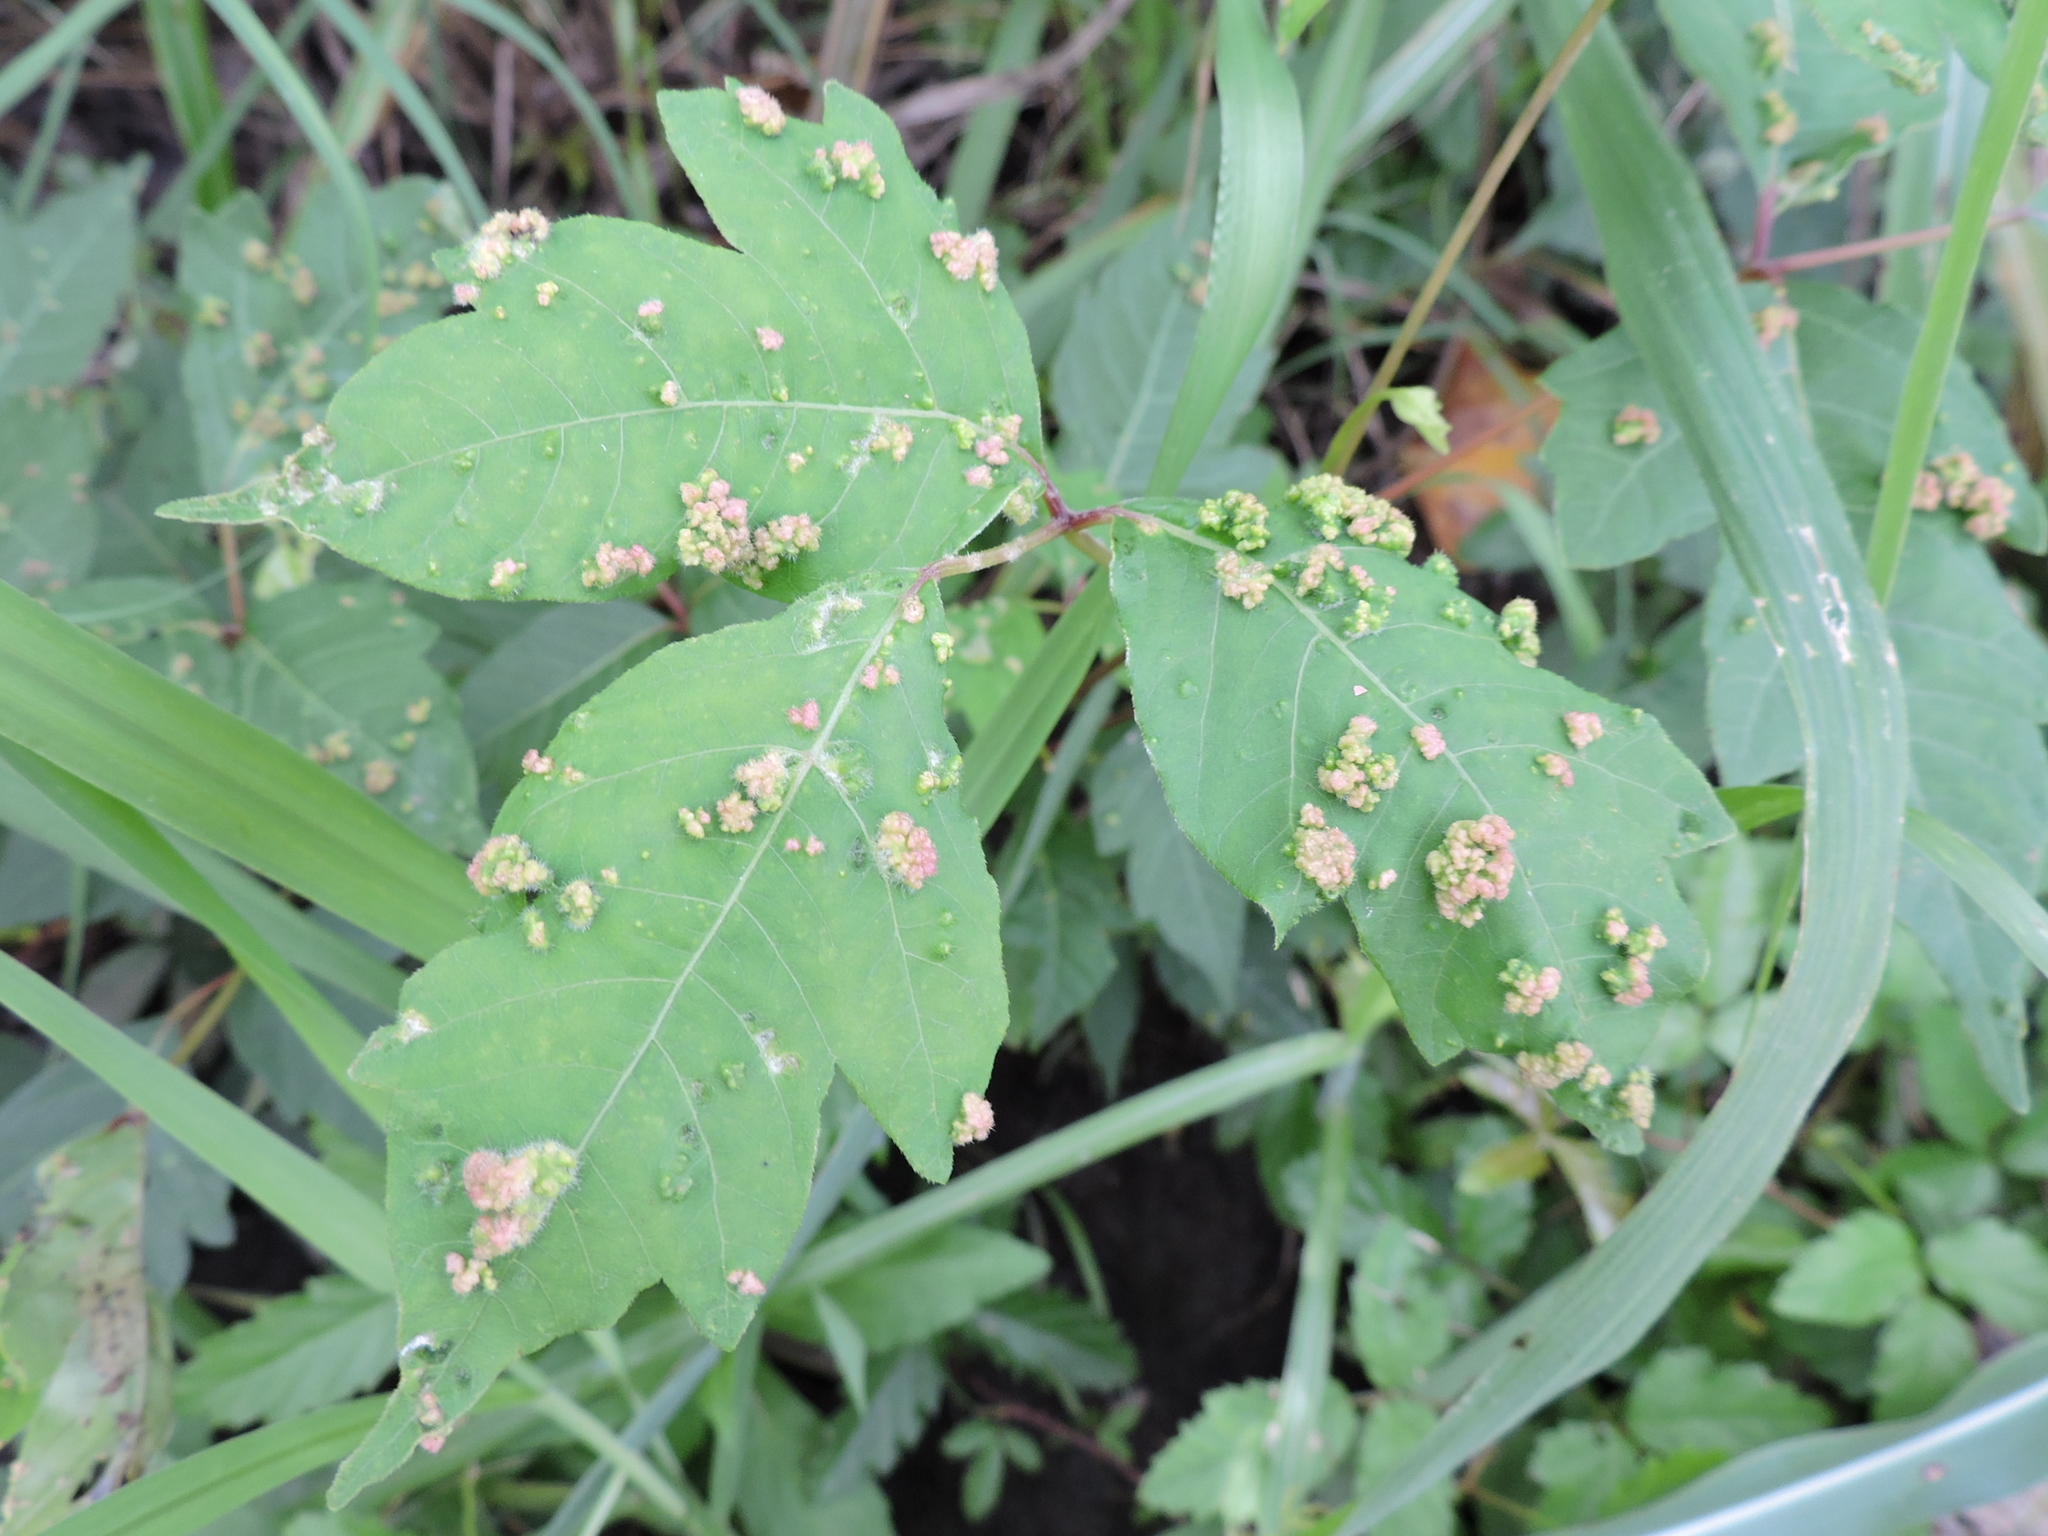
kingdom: Animalia
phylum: Arthropoda
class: Arachnida
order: Trombidiformes
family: Eriophyidae
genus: Aculops
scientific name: Aculops
